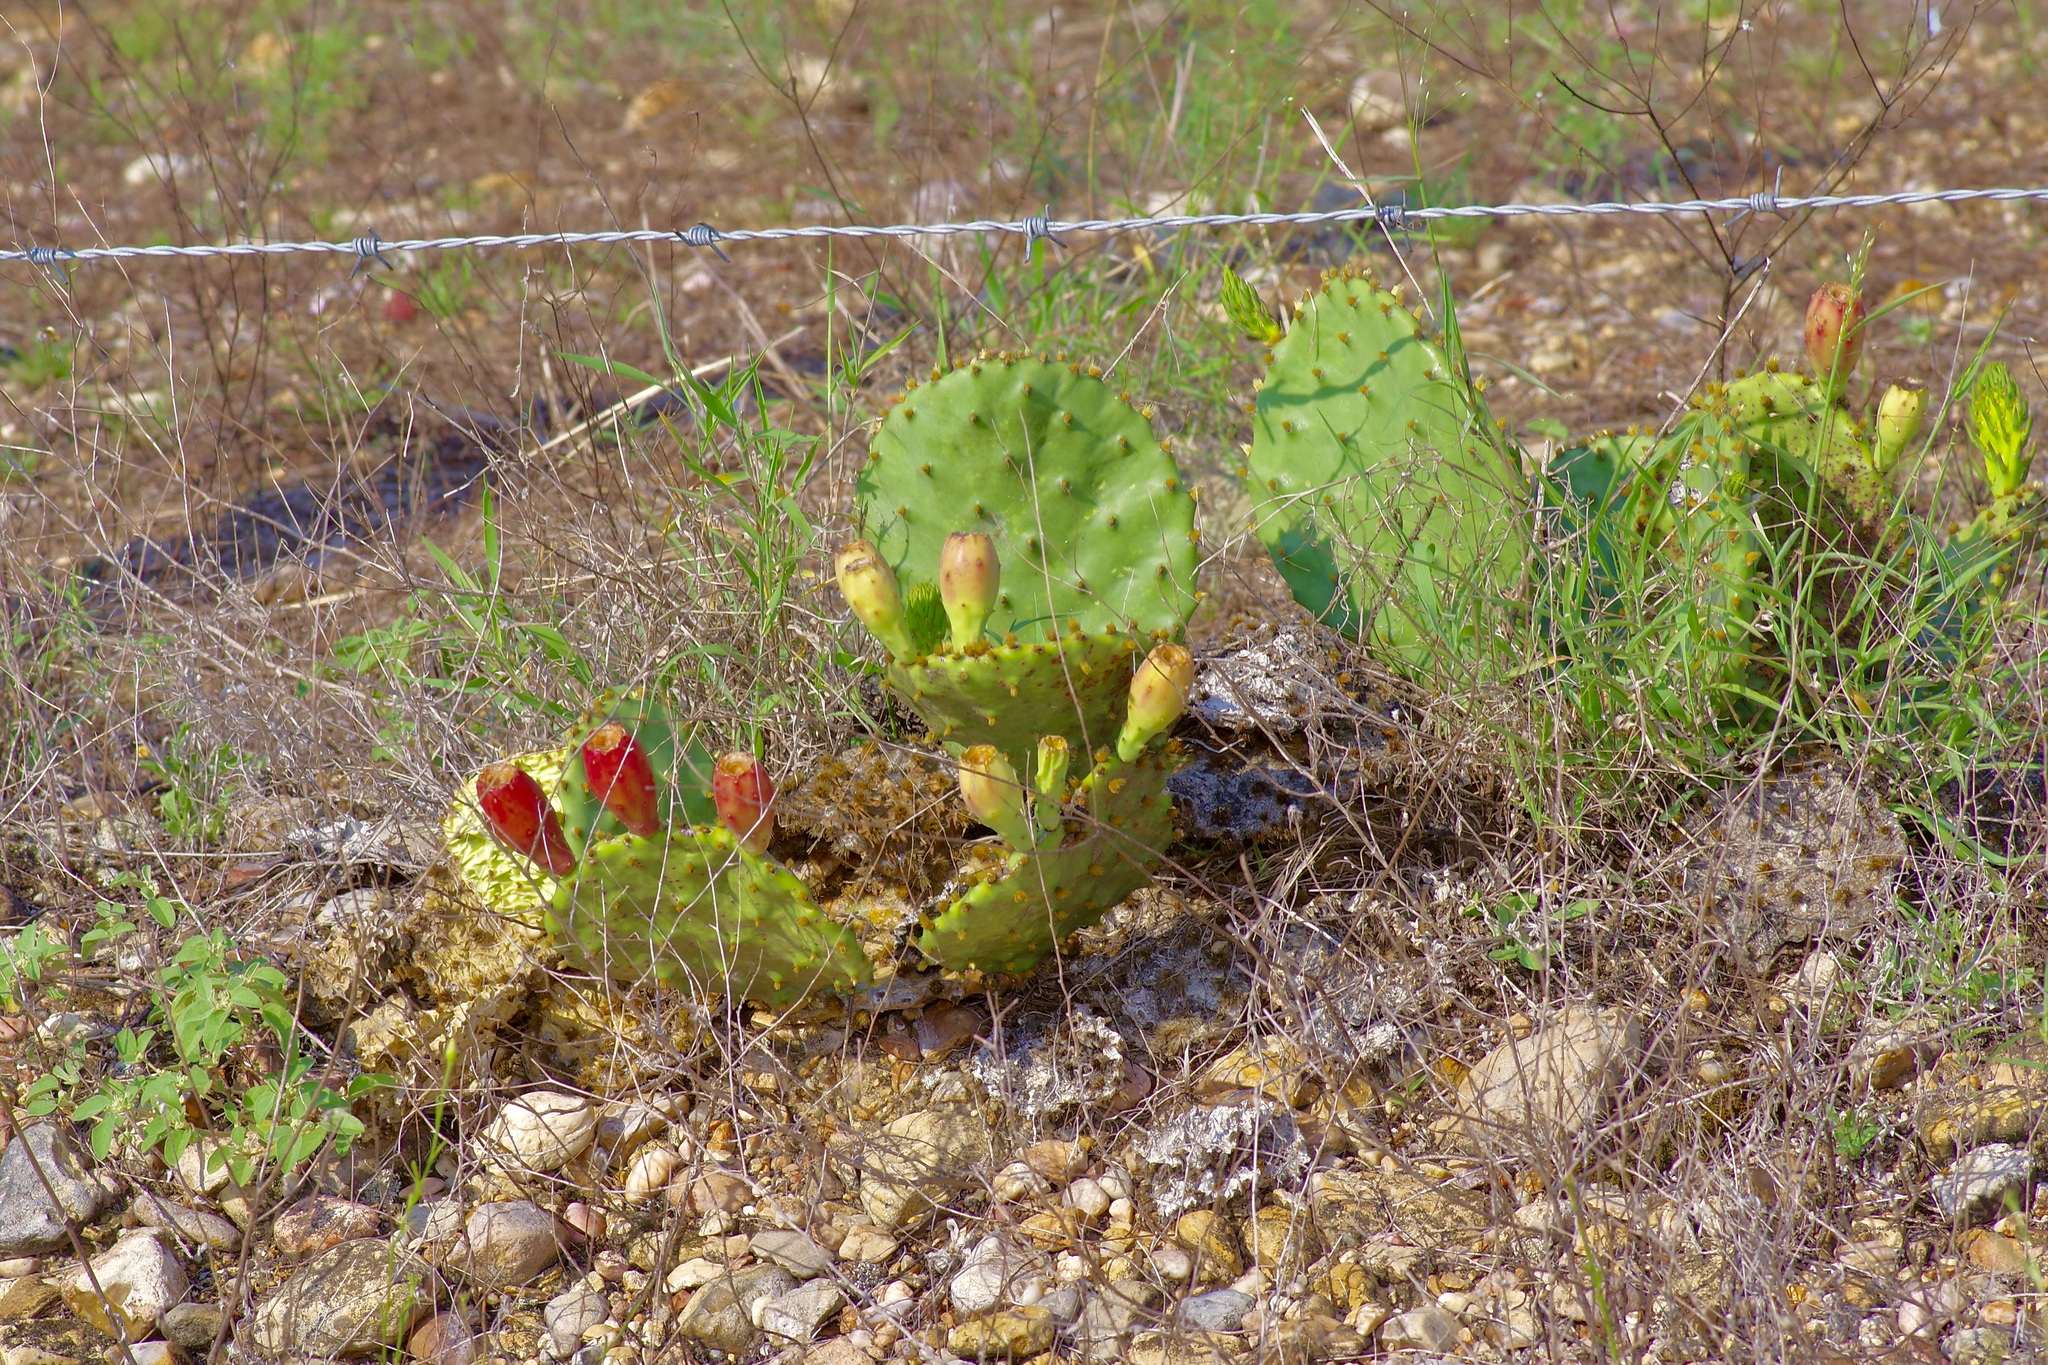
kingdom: Plantae
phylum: Tracheophyta
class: Magnoliopsida
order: Caryophyllales
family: Cactaceae
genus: Opuntia
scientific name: Opuntia macrorhiza
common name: Grassland pricklypear
